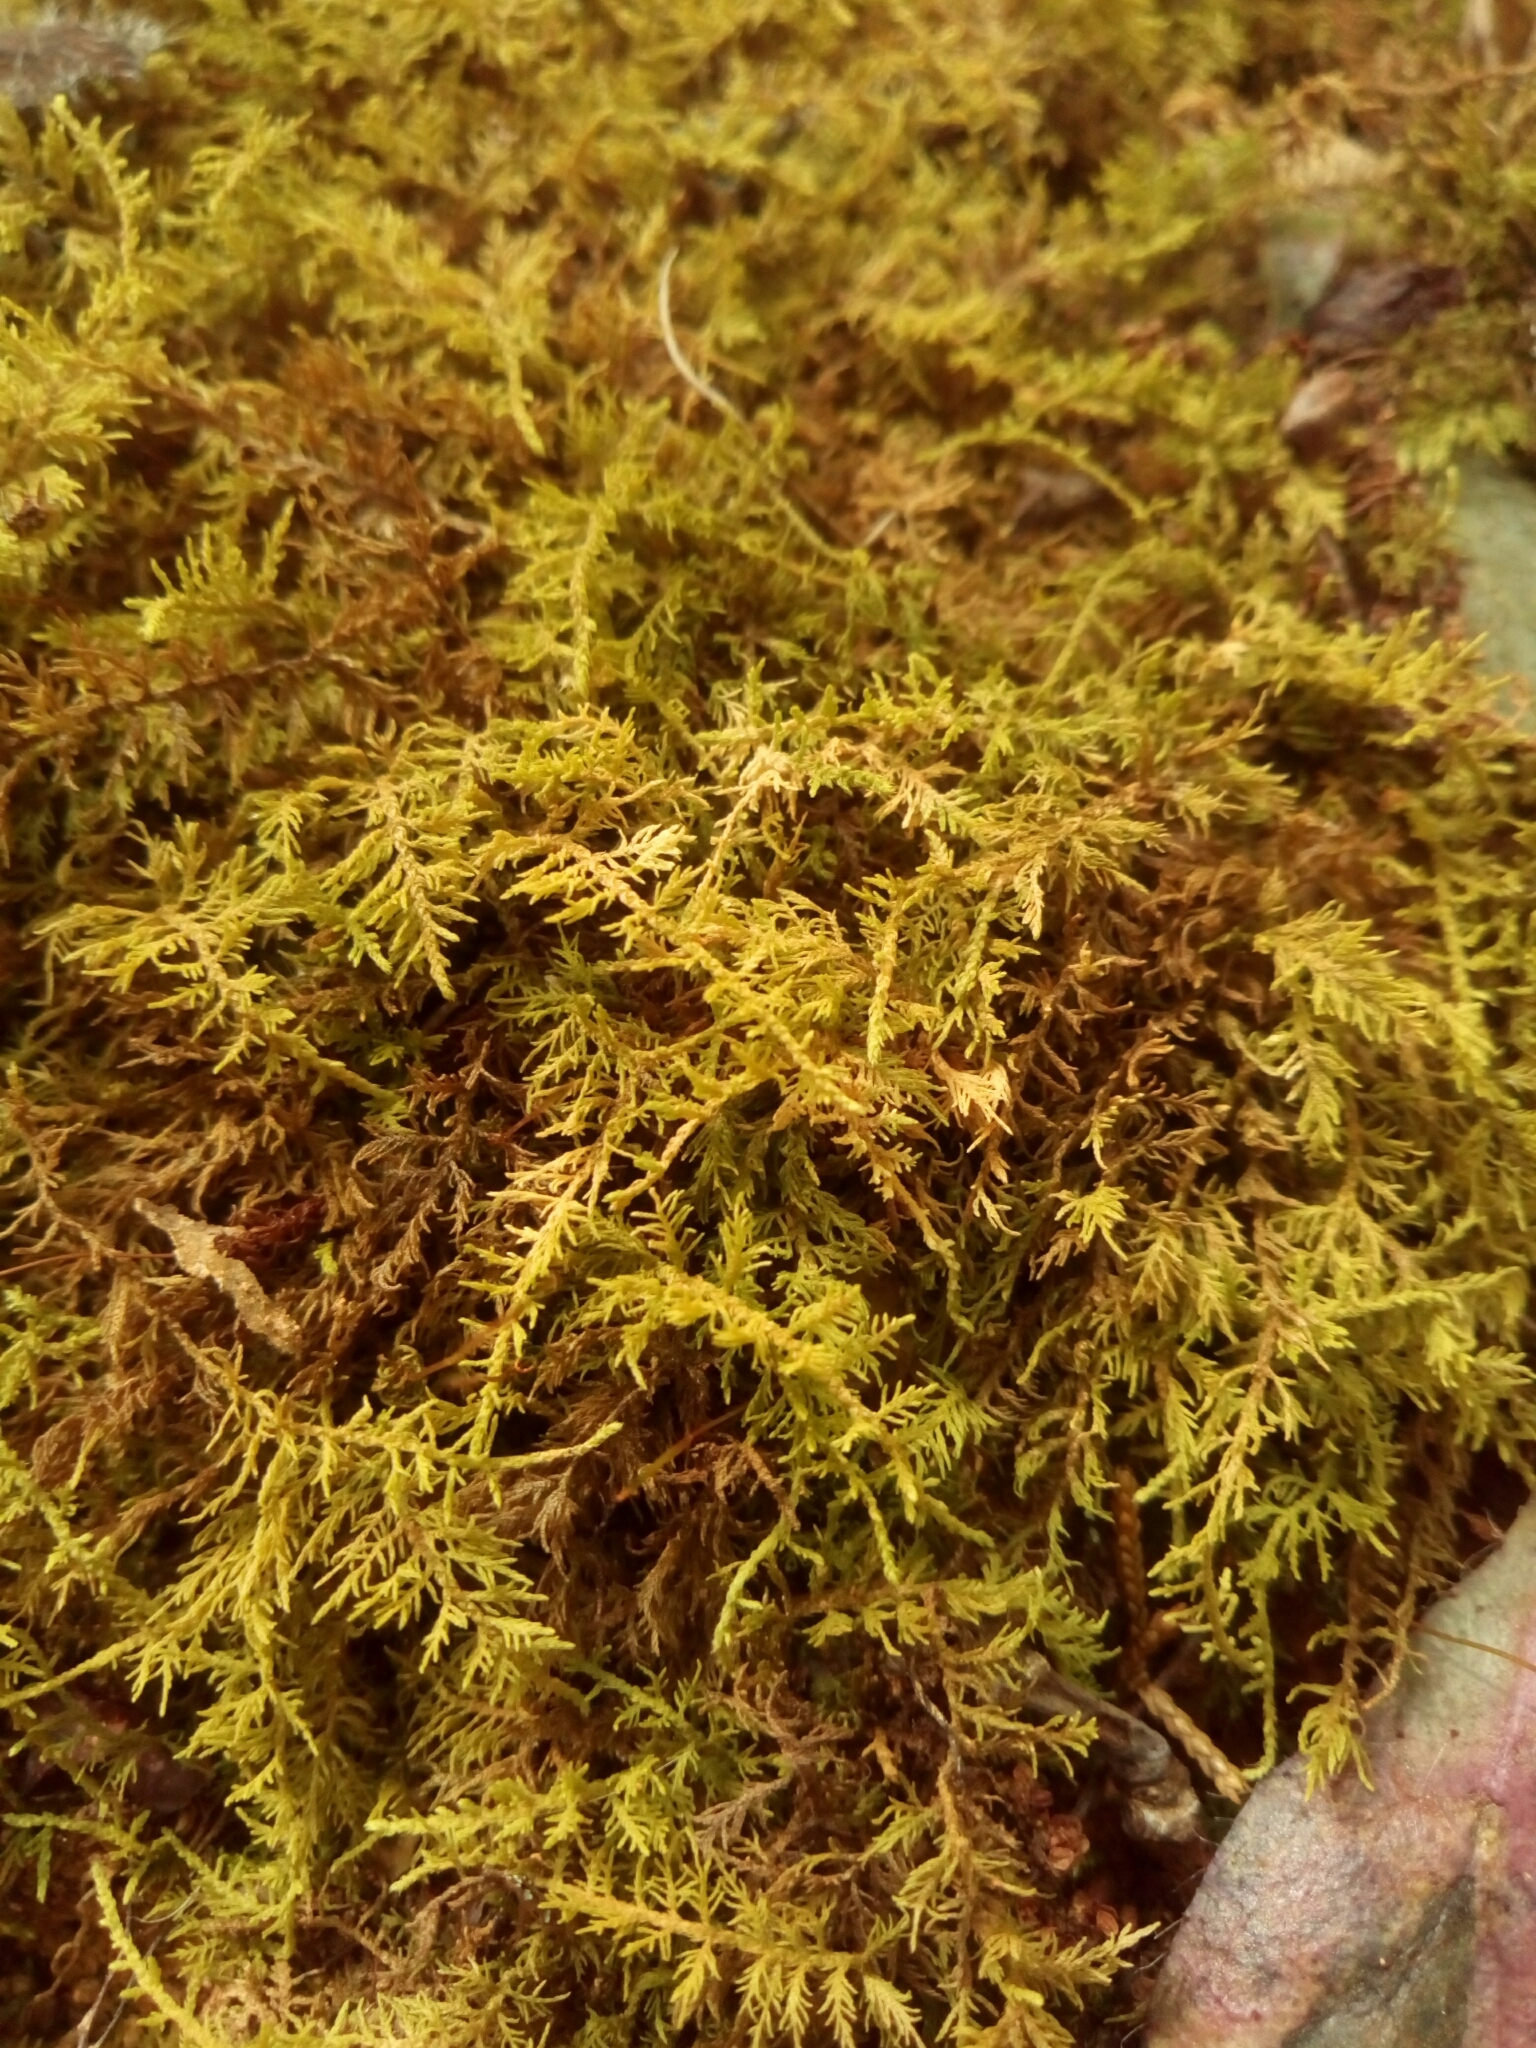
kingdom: Plantae
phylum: Bryophyta
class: Bryopsida
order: Hypnales
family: Thuidiaceae
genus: Thuidium
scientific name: Thuidium delicatulum
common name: Delicate fern moss
